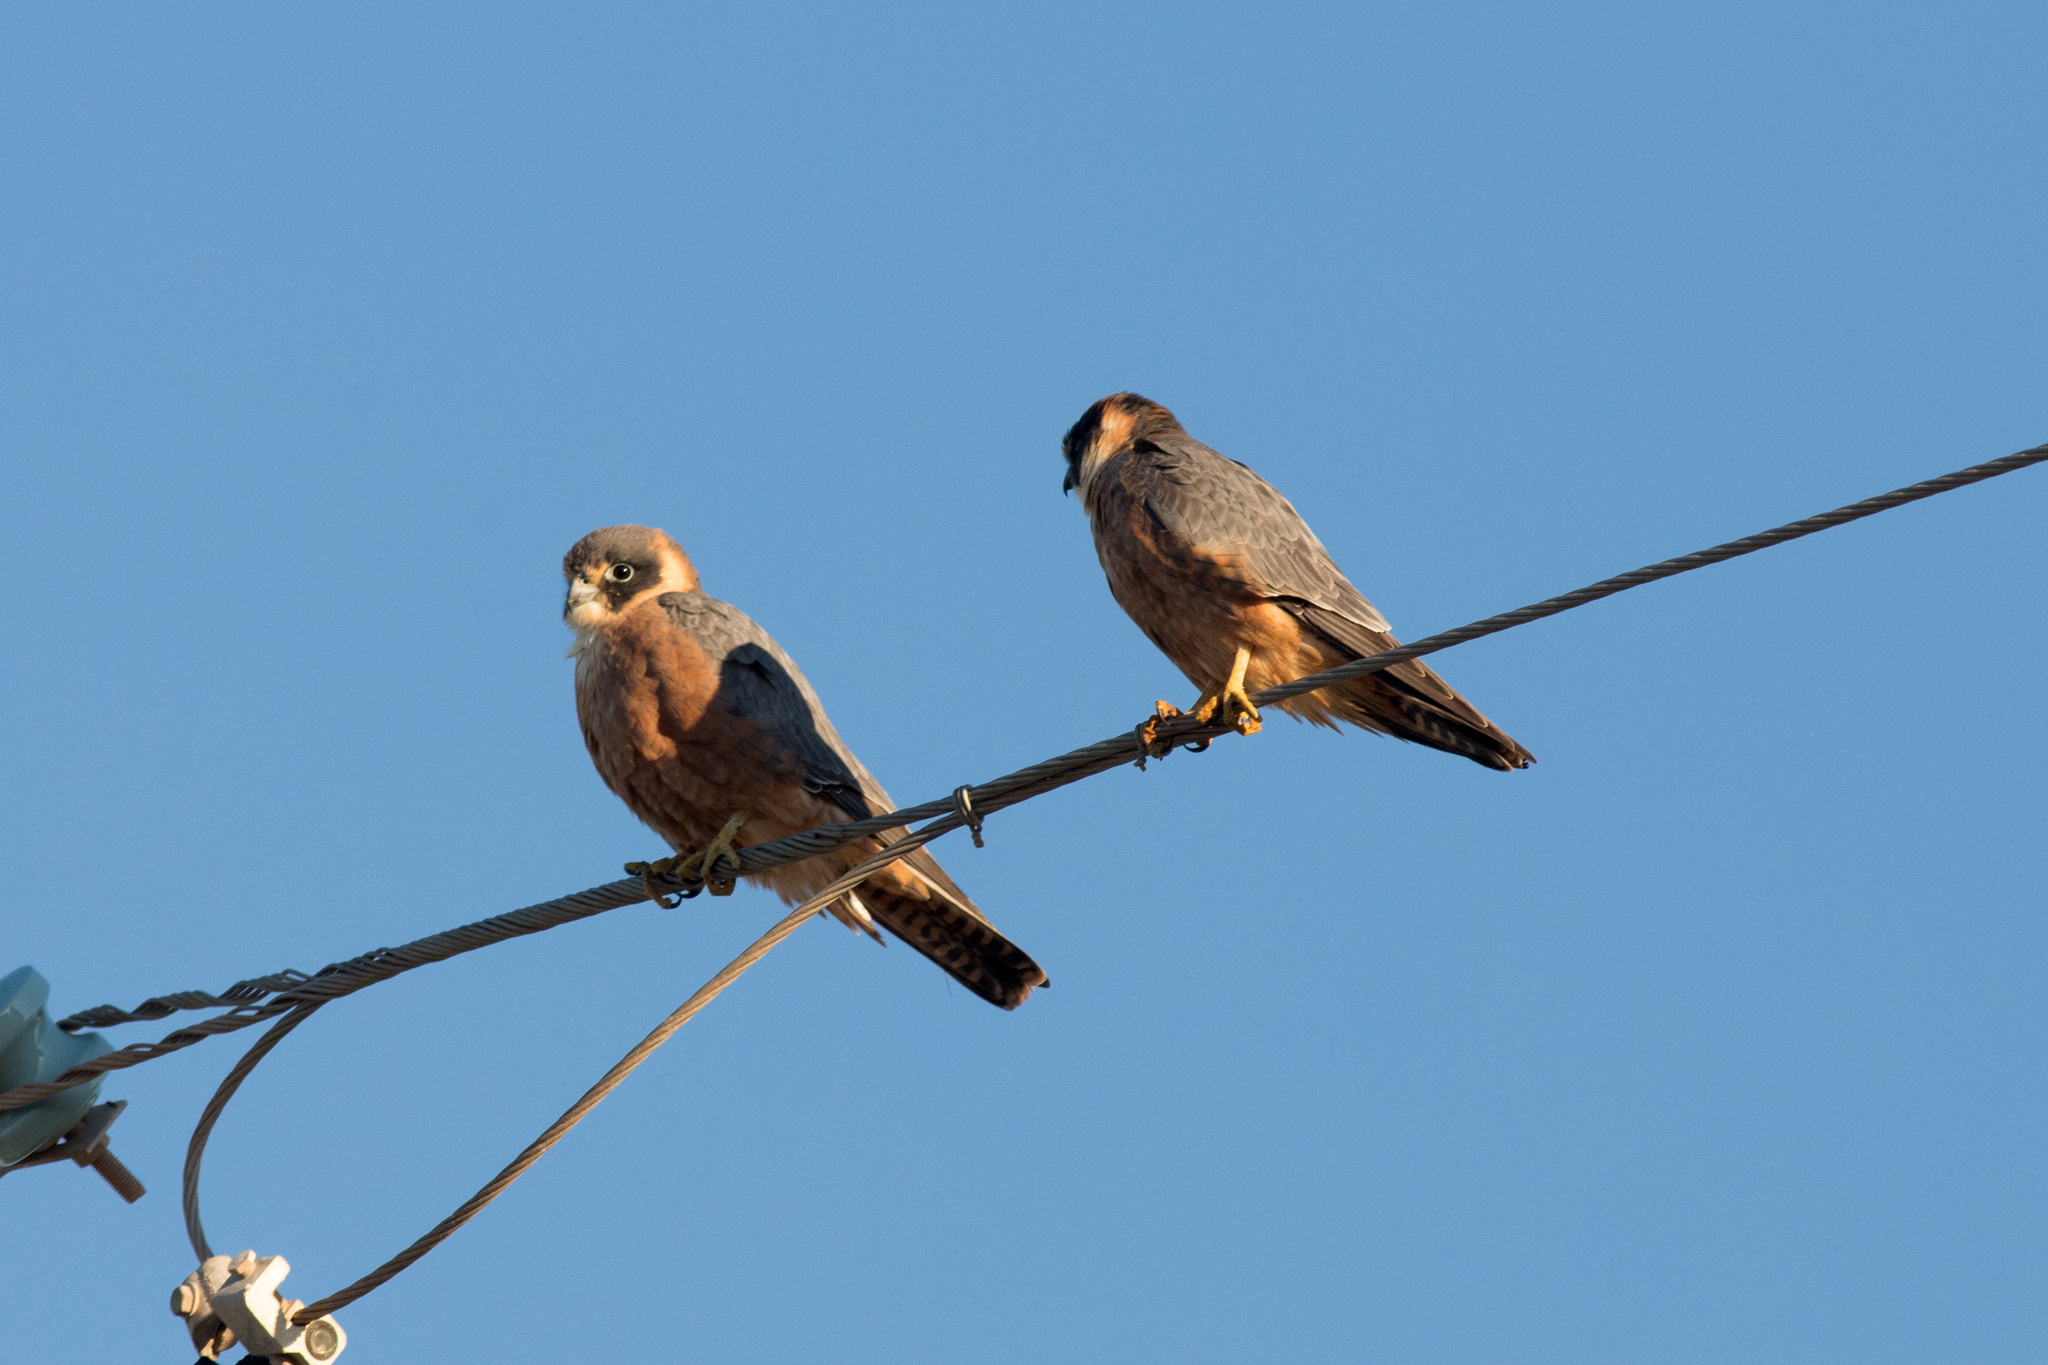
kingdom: Animalia
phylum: Chordata
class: Aves
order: Falconiformes
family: Falconidae
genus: Falco
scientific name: Falco longipennis
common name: Australian hobby
